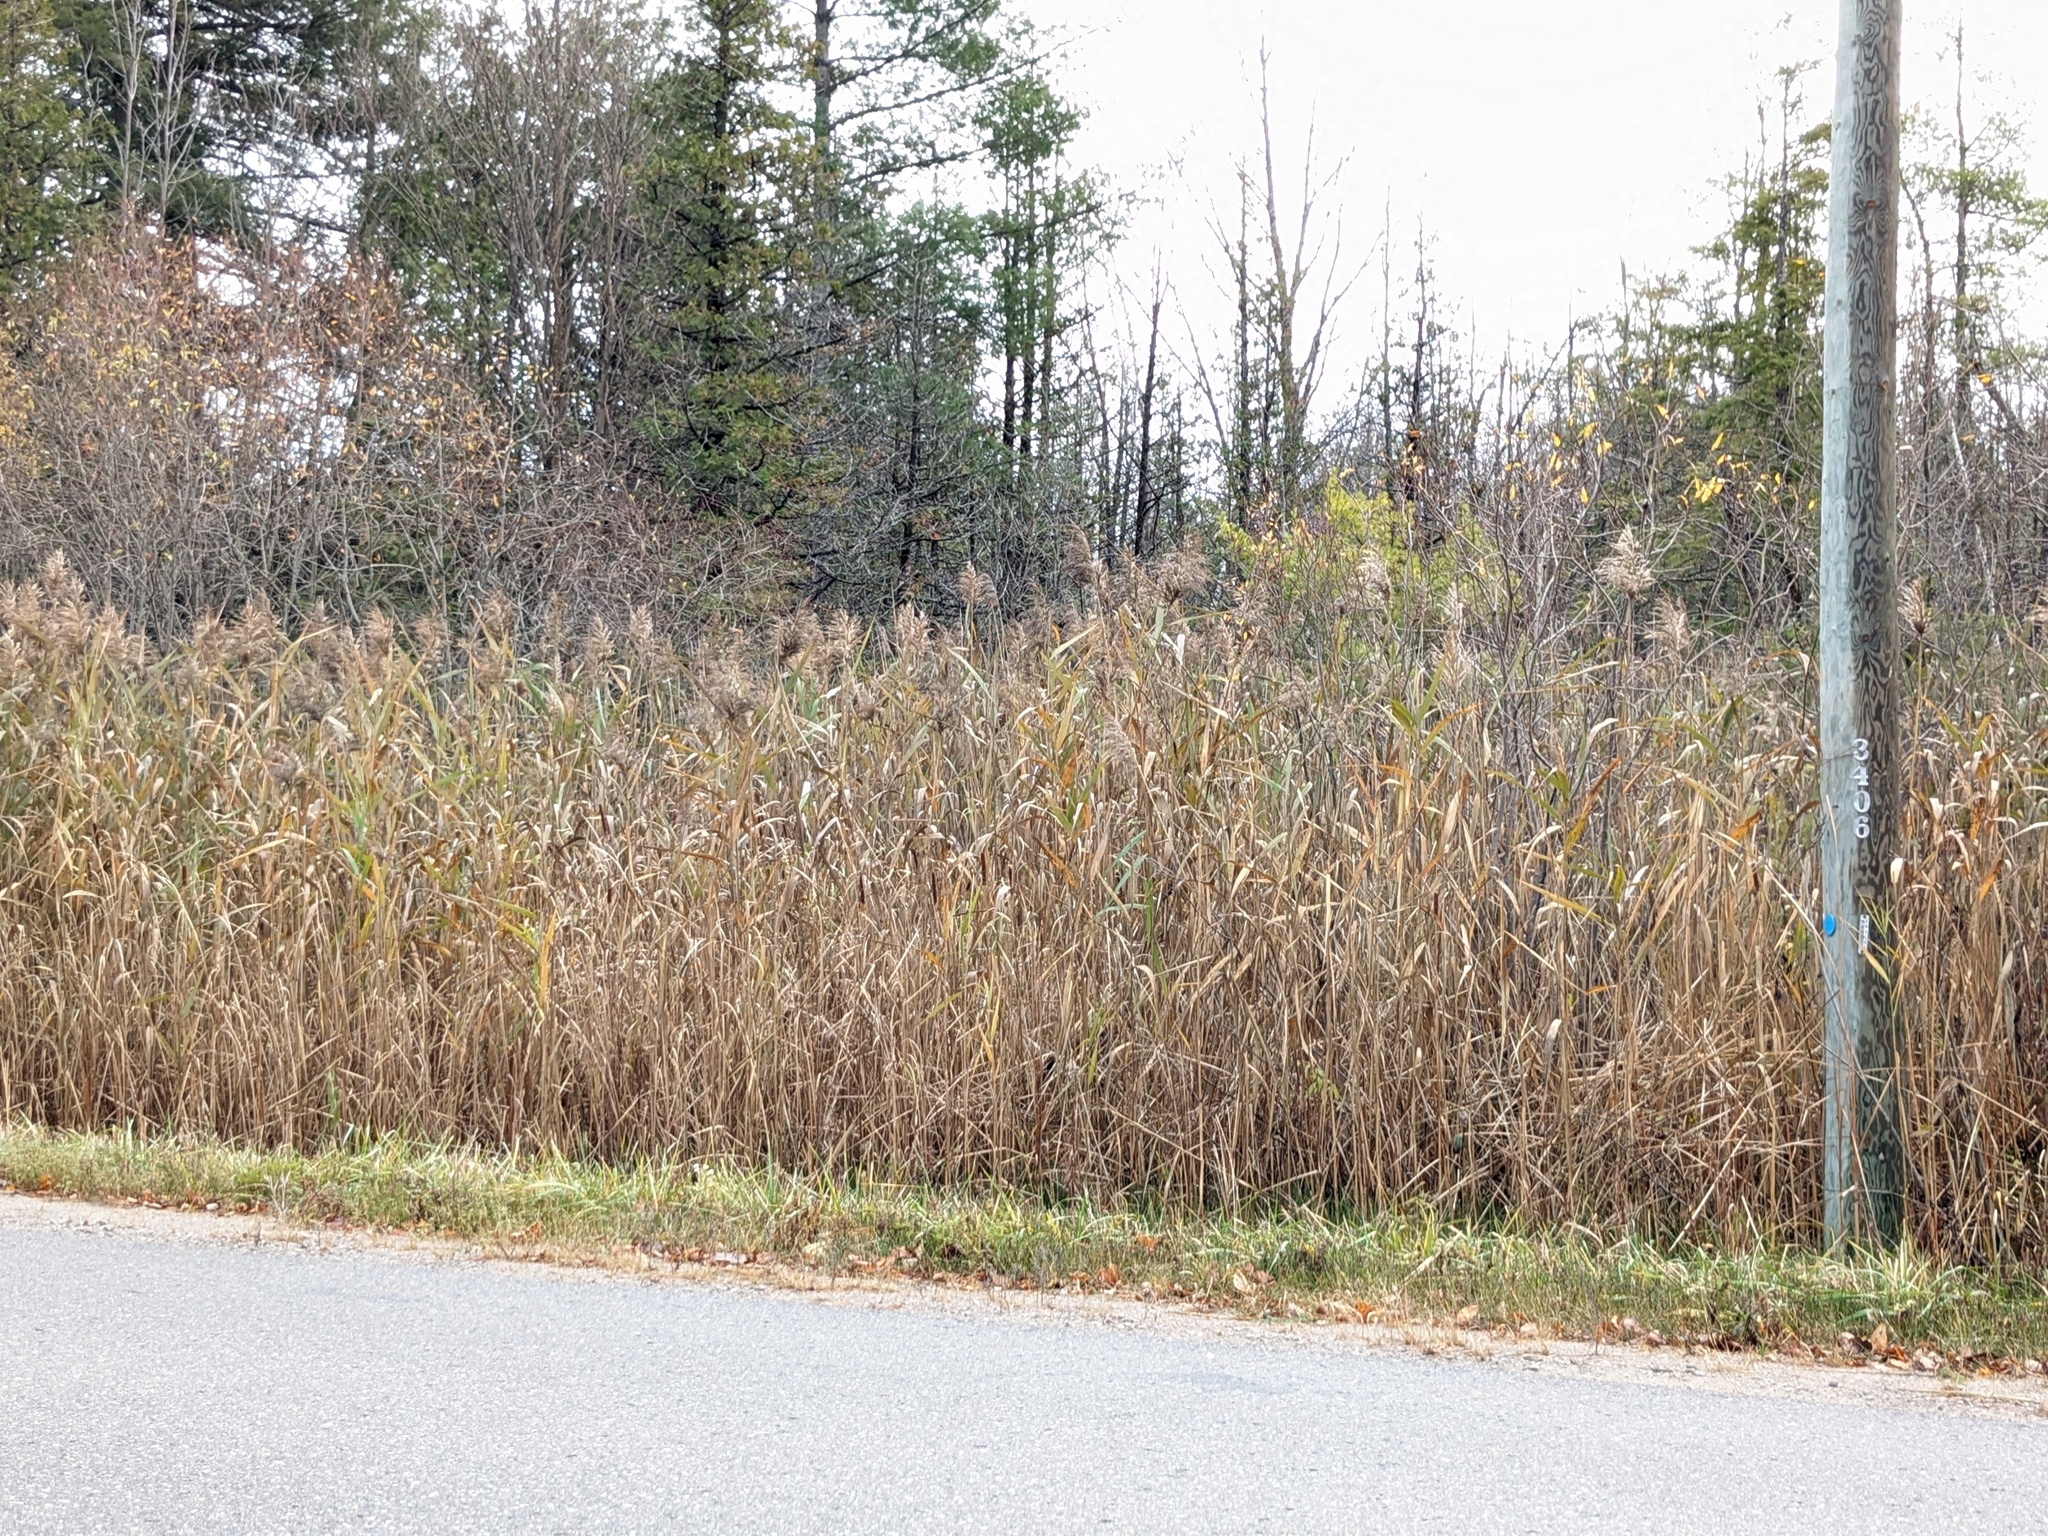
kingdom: Plantae
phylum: Tracheophyta
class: Liliopsida
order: Poales
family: Poaceae
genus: Phragmites
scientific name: Phragmites australis
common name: Common reed
